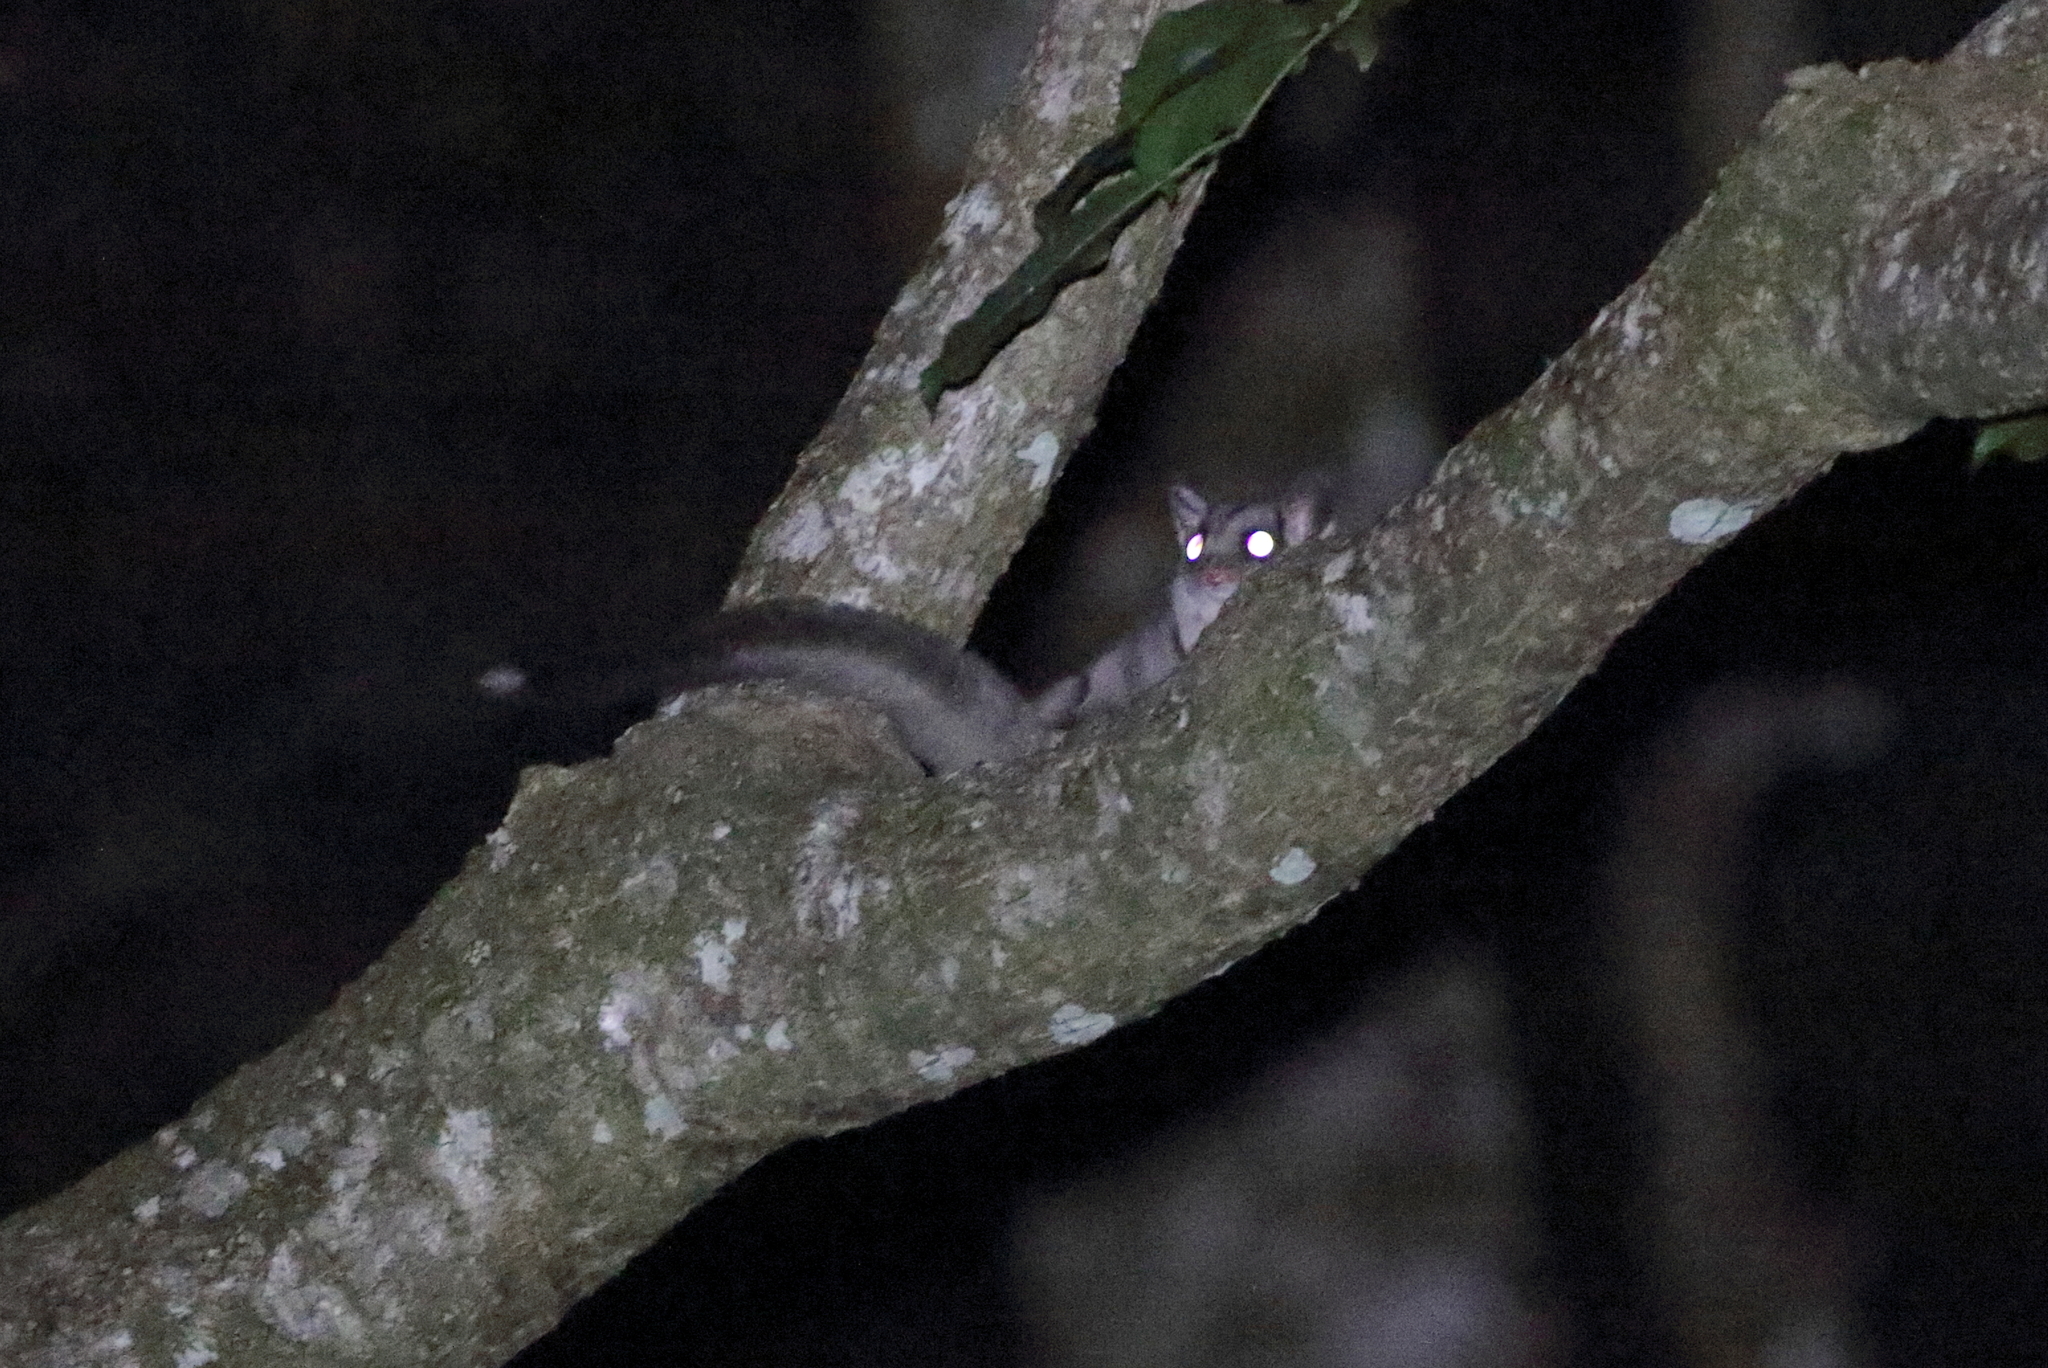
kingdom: Animalia
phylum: Chordata
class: Mammalia
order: Diprotodontia
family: Petauridae
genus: Petaurus
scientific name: Petaurus breviceps
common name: Sugar glider
